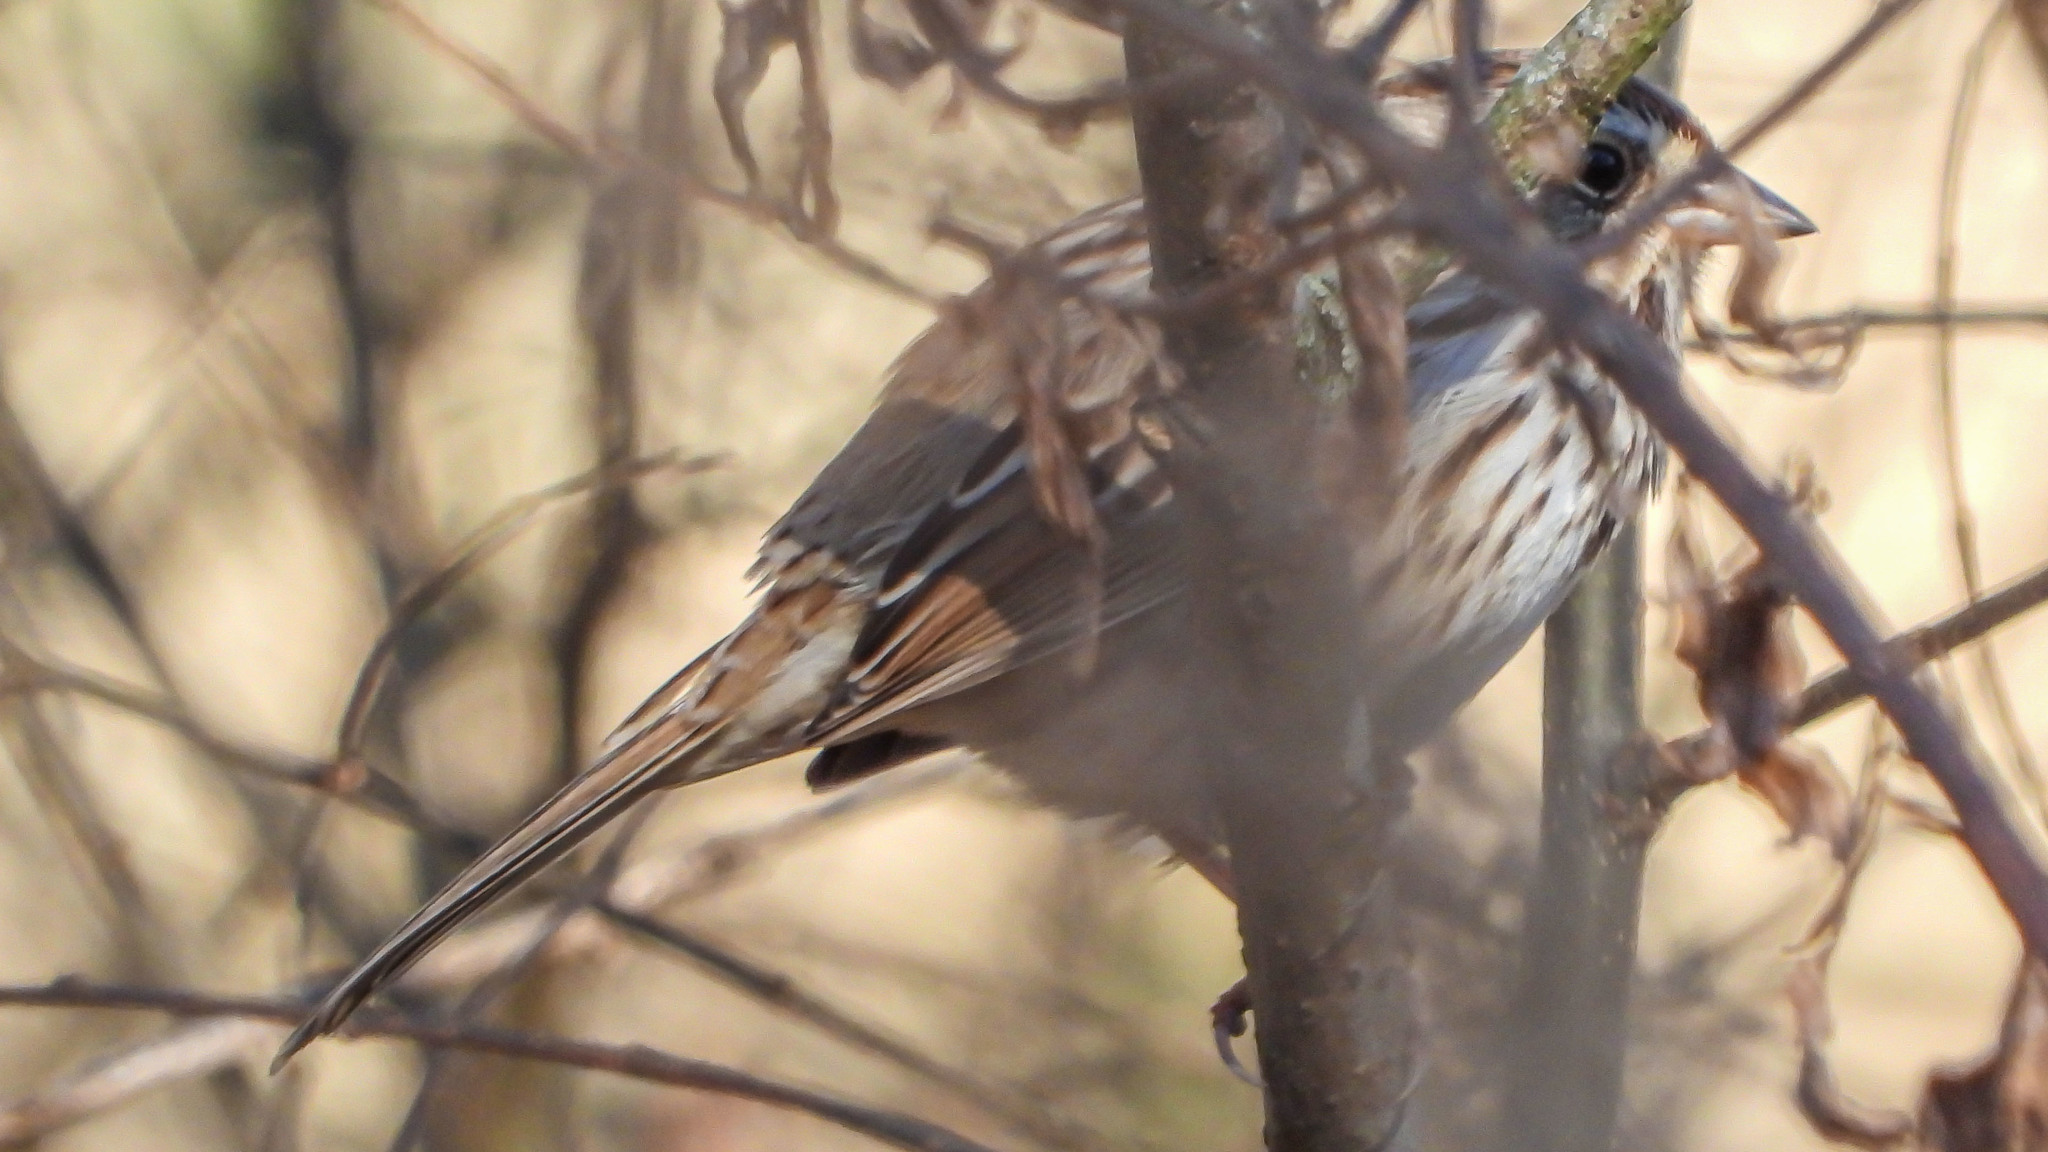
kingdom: Animalia
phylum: Chordata
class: Aves
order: Passeriformes
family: Passerellidae
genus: Melospiza
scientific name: Melospiza melodia
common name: Song sparrow
